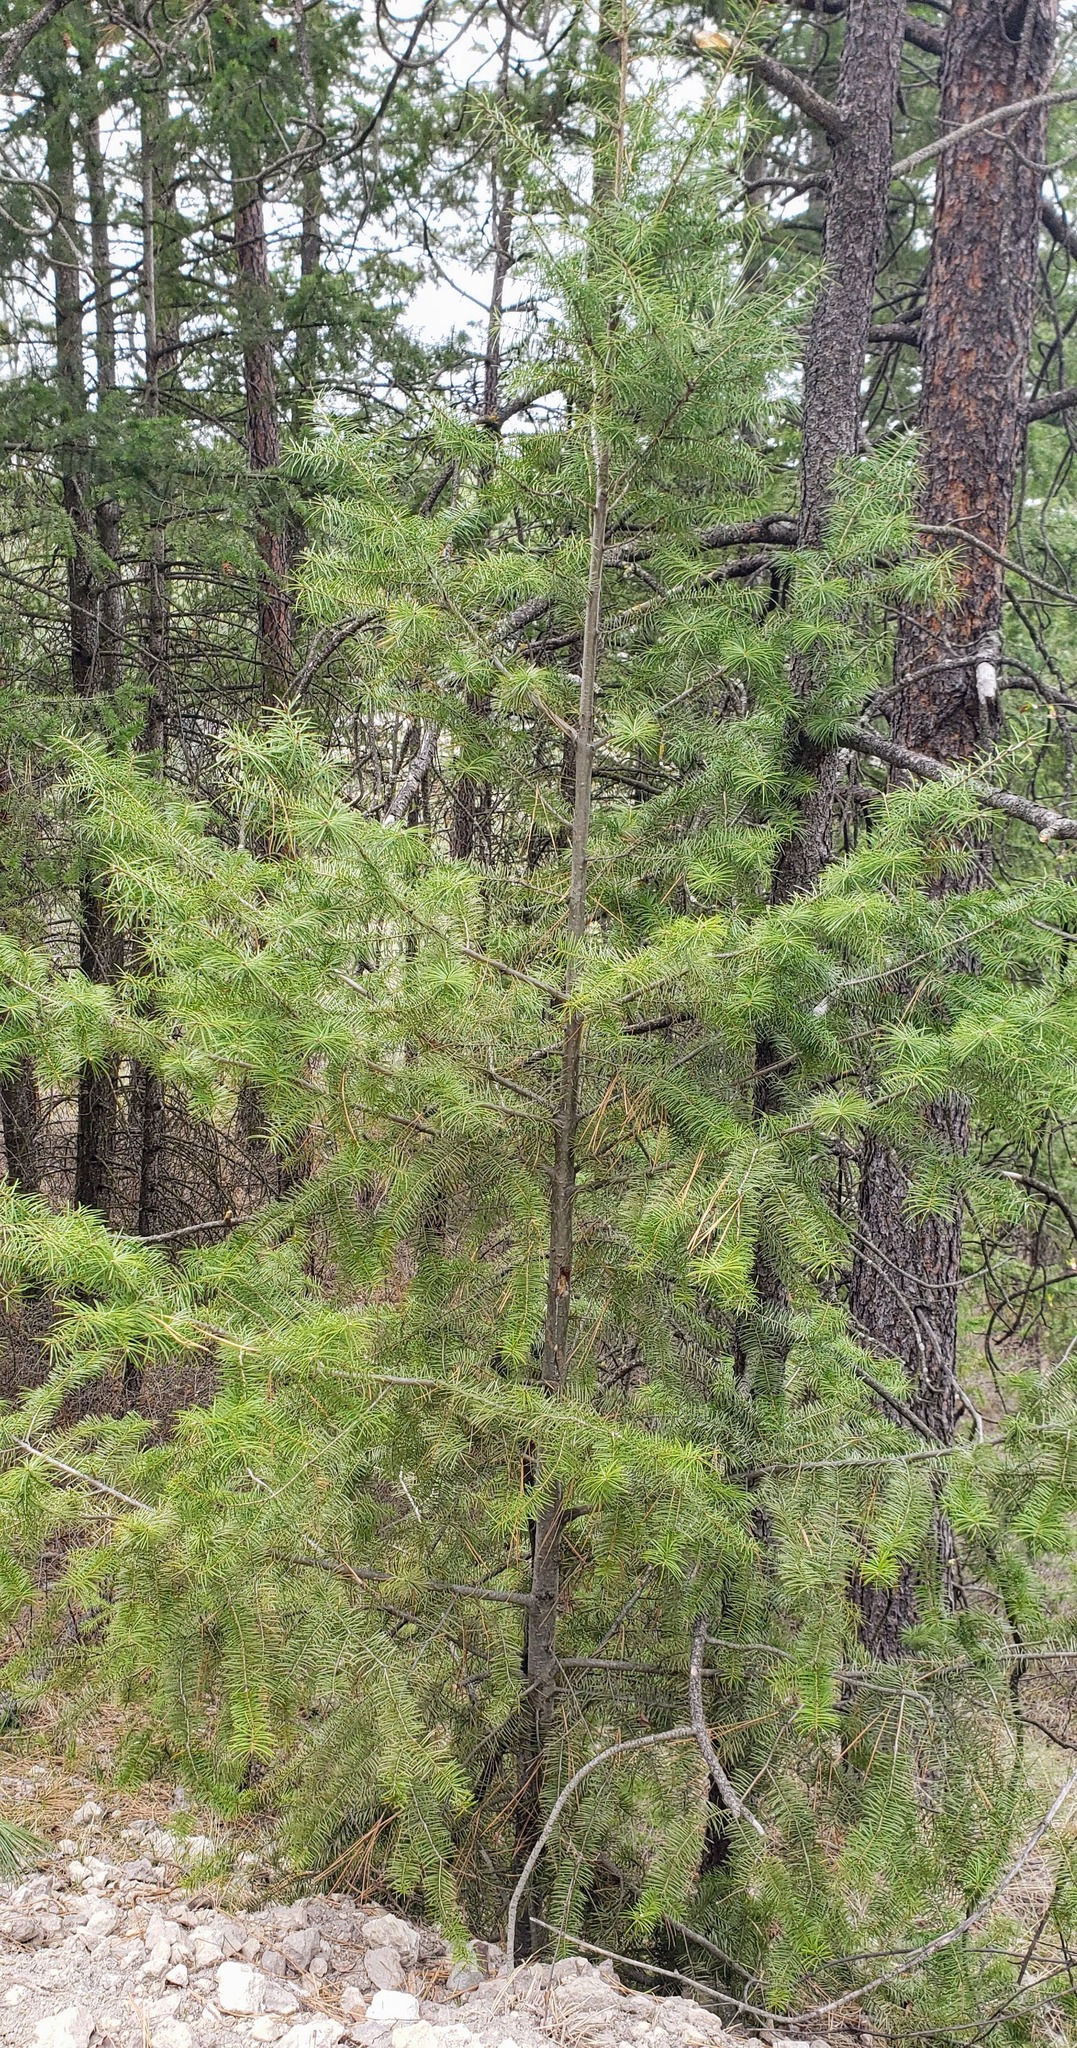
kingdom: Plantae
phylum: Tracheophyta
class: Pinopsida
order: Pinales
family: Pinaceae
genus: Pseudotsuga
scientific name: Pseudotsuga menziesii
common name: Douglas fir
